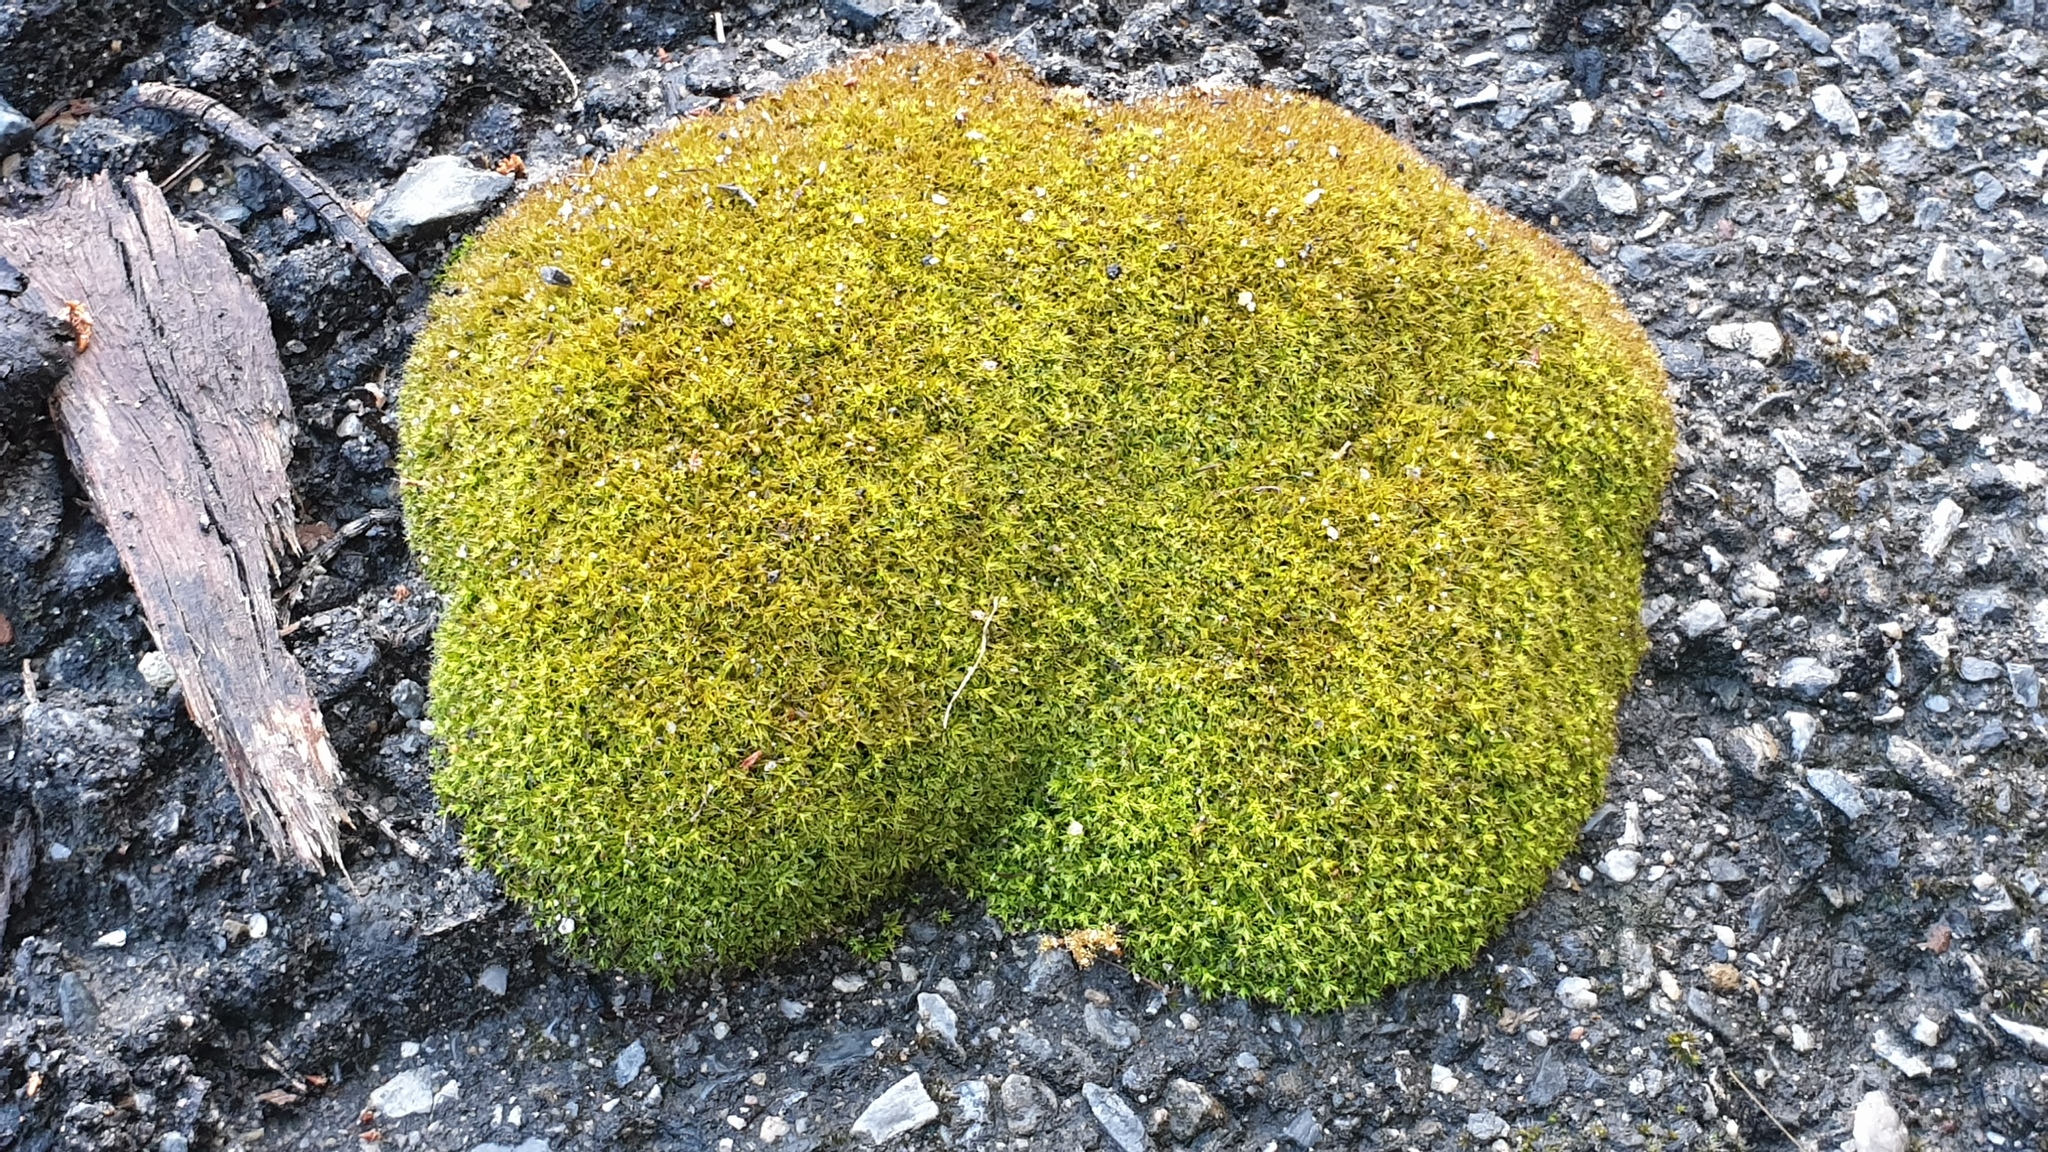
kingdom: Plantae
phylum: Bryophyta
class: Bryopsida
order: Pottiales
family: Pottiaceae
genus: Barbula
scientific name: Barbula calycina
